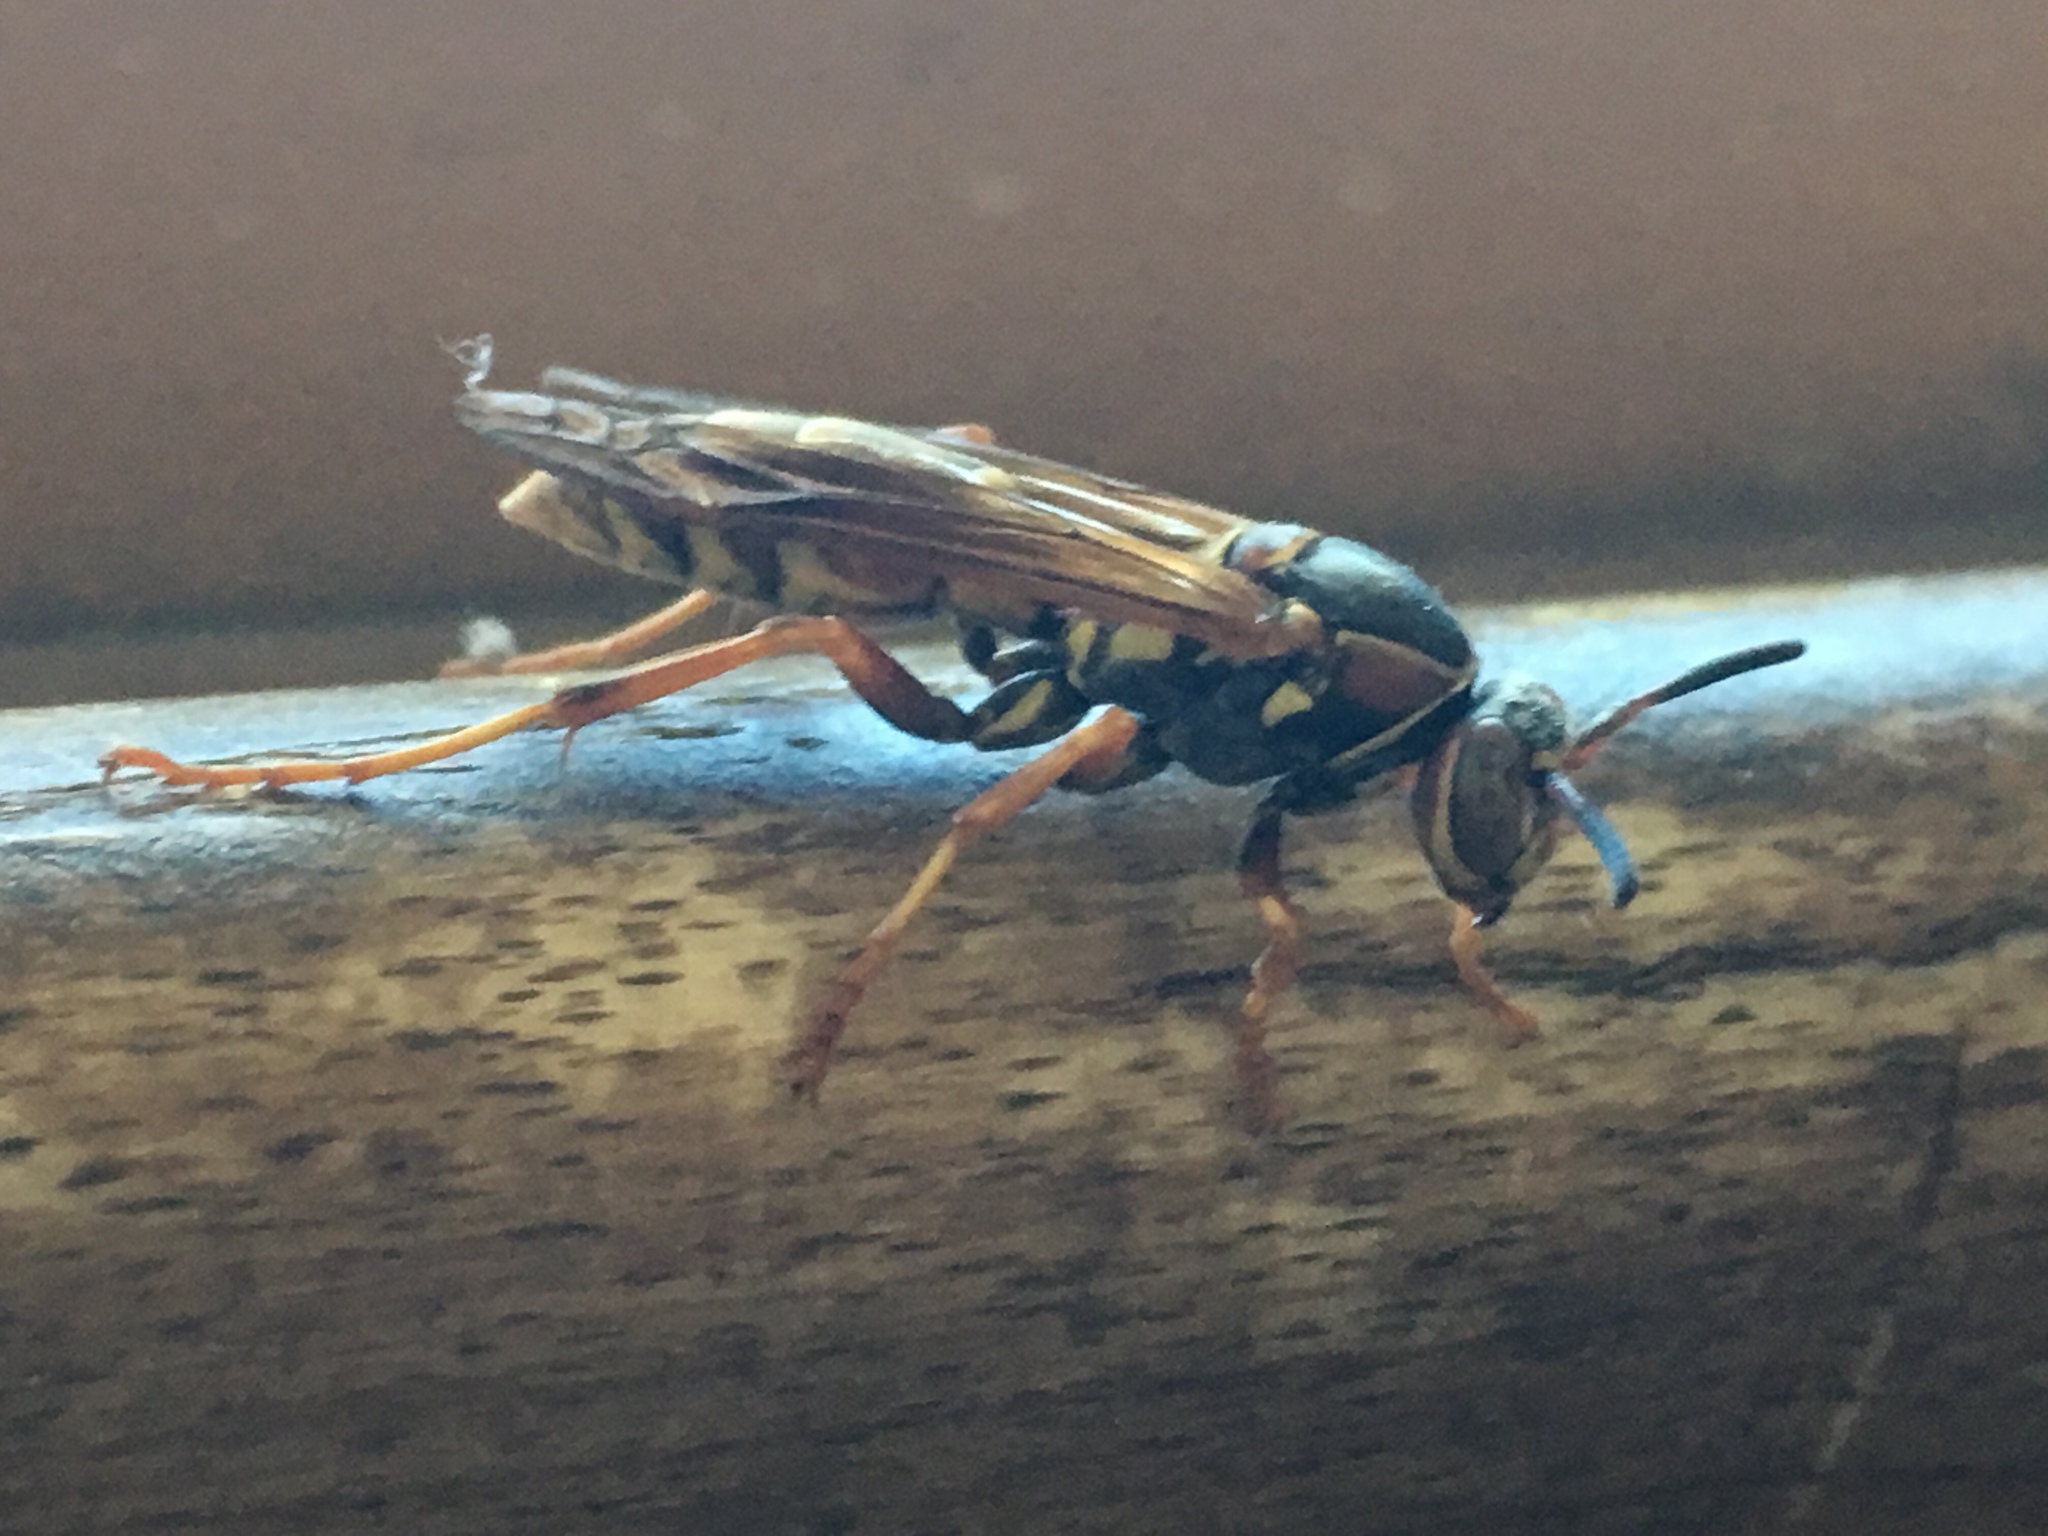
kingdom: Animalia
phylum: Arthropoda
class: Insecta
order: Hymenoptera
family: Eumenidae
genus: Polistes
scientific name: Polistes fuscatus
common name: Dark paper wasp
